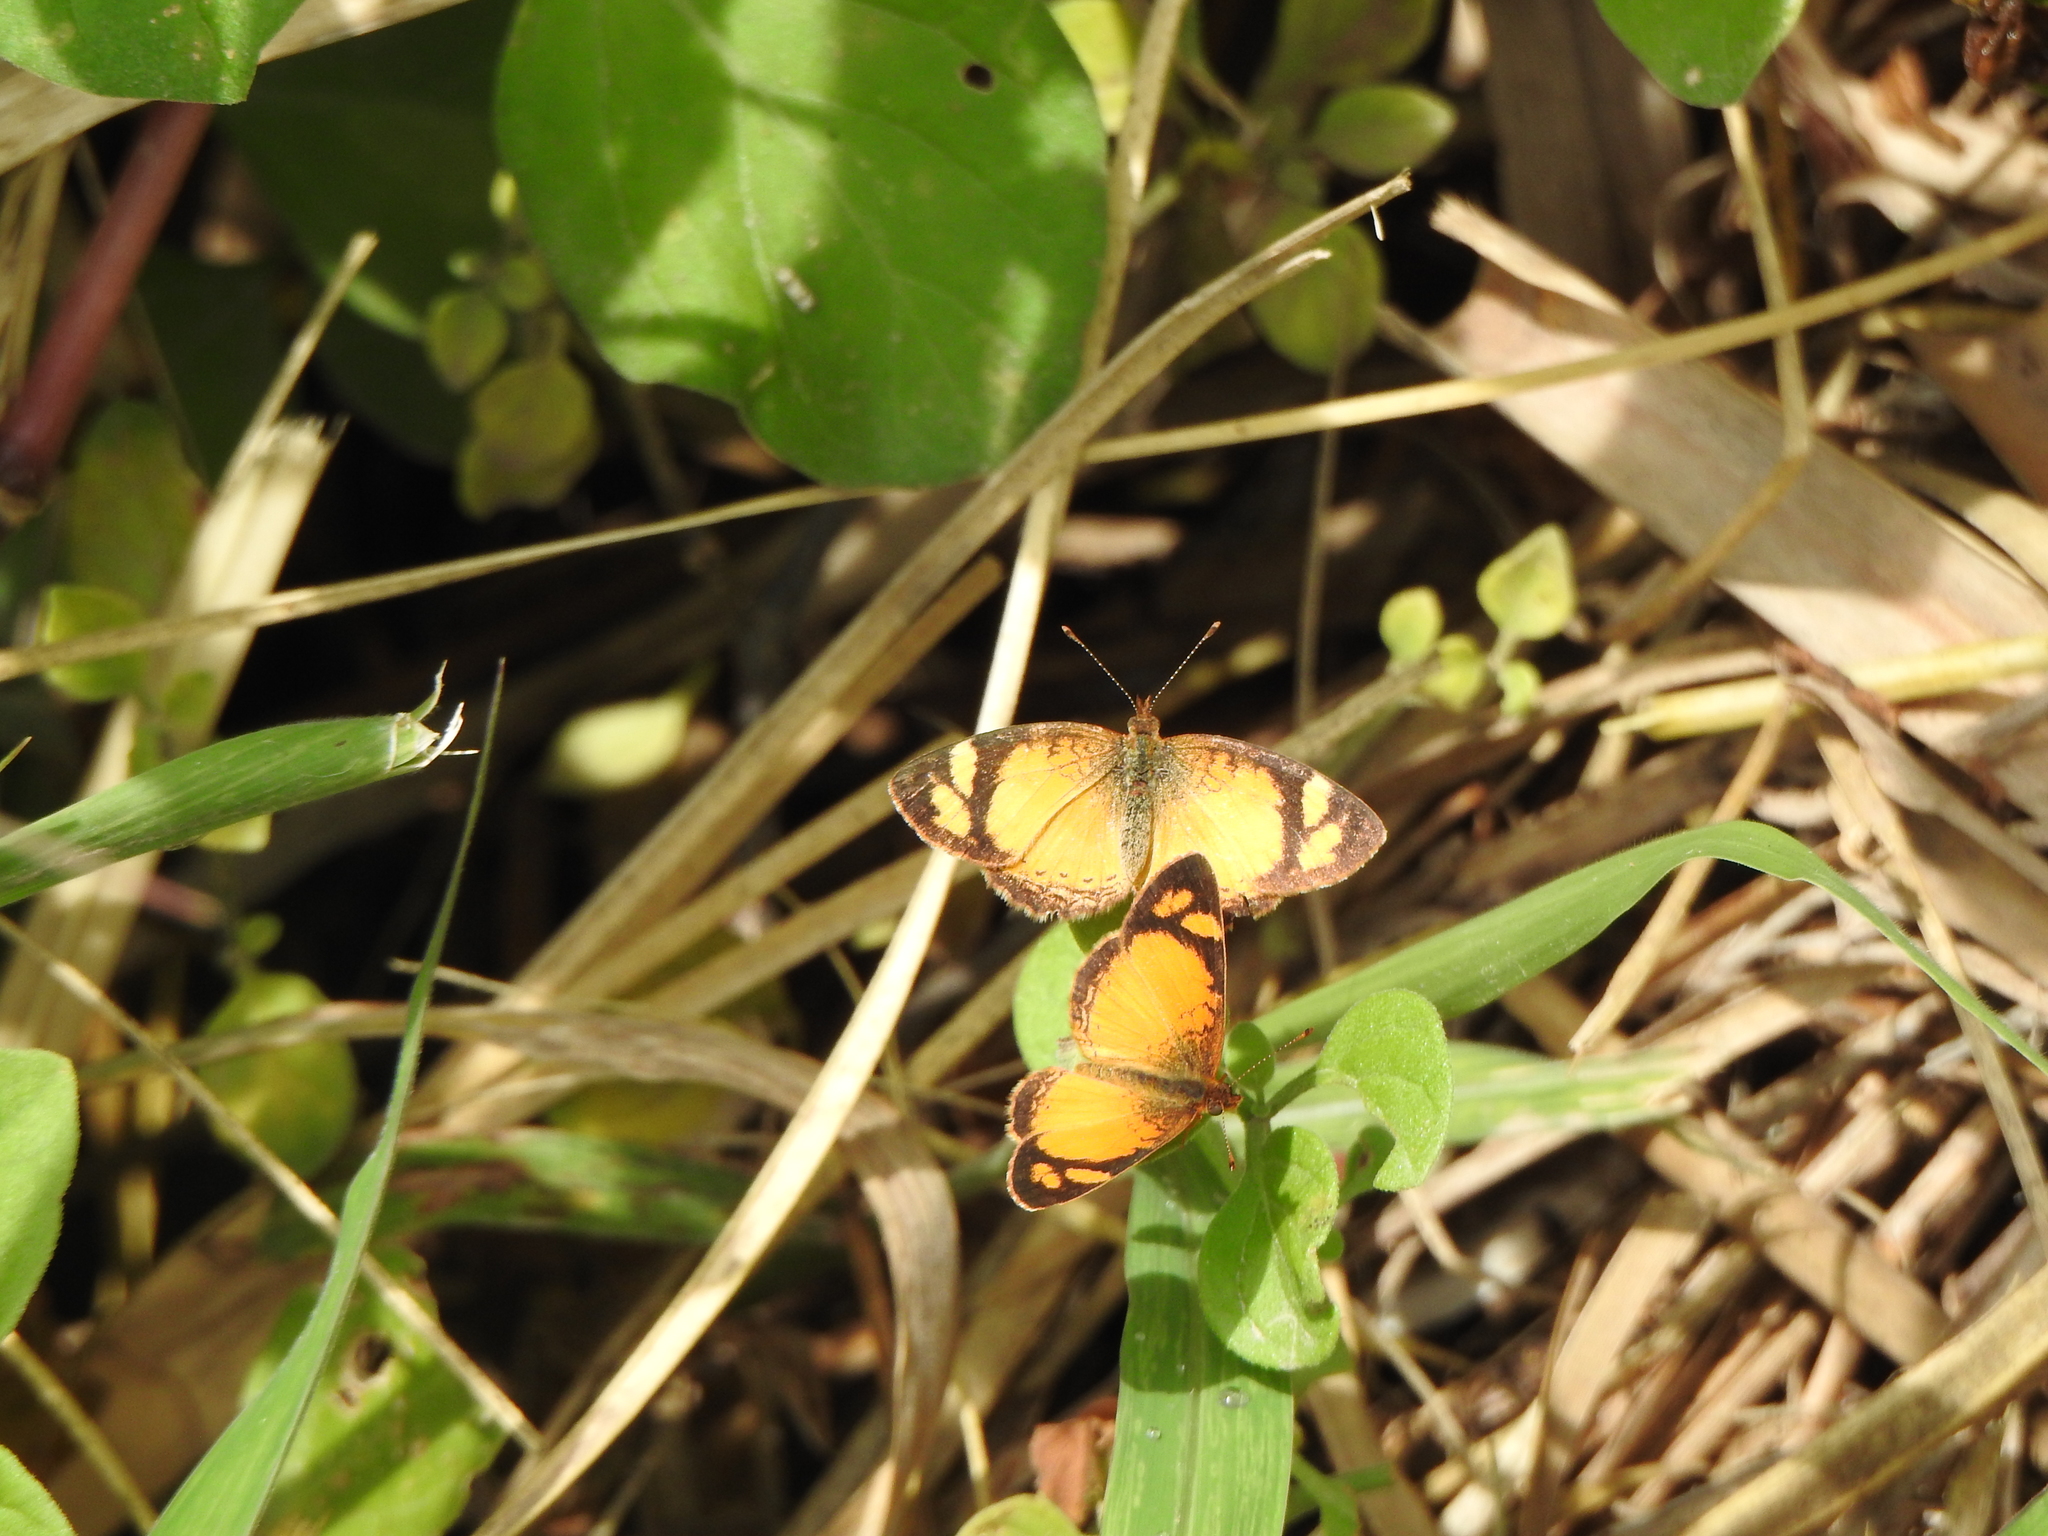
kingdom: Animalia
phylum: Arthropoda
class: Insecta
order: Lepidoptera
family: Nymphalidae
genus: Tegosa
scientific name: Tegosa claudina
